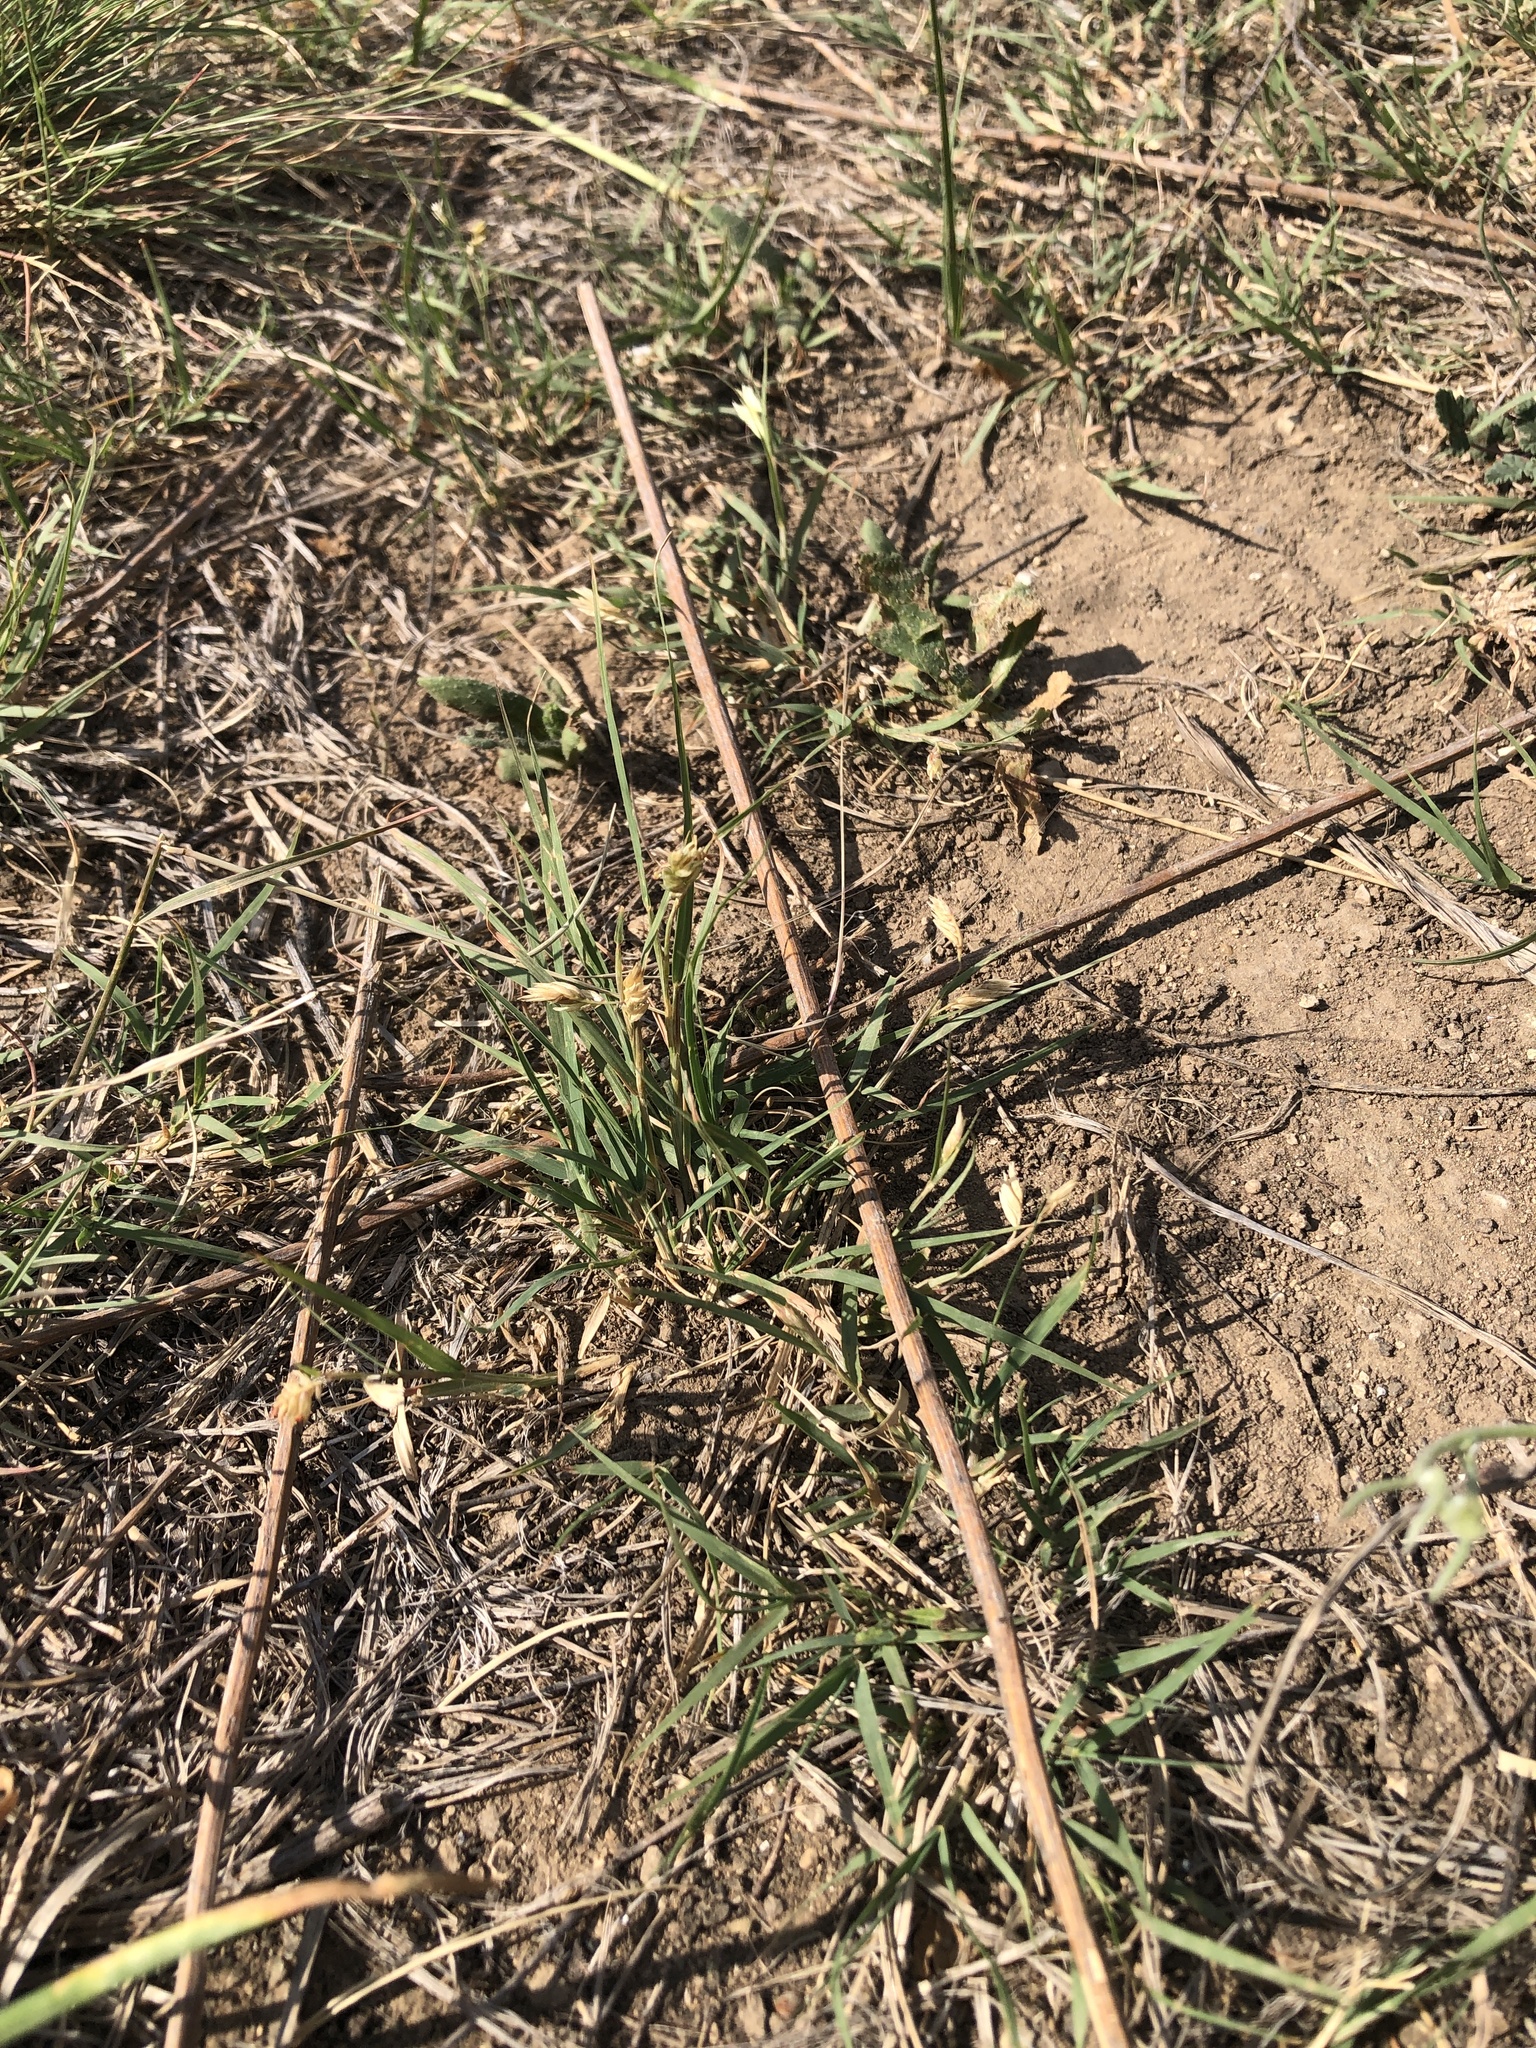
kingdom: Plantae
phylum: Tracheophyta
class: Liliopsida
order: Poales
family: Poaceae
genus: Bouteloua
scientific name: Bouteloua dactyloides
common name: Buffalo grass
